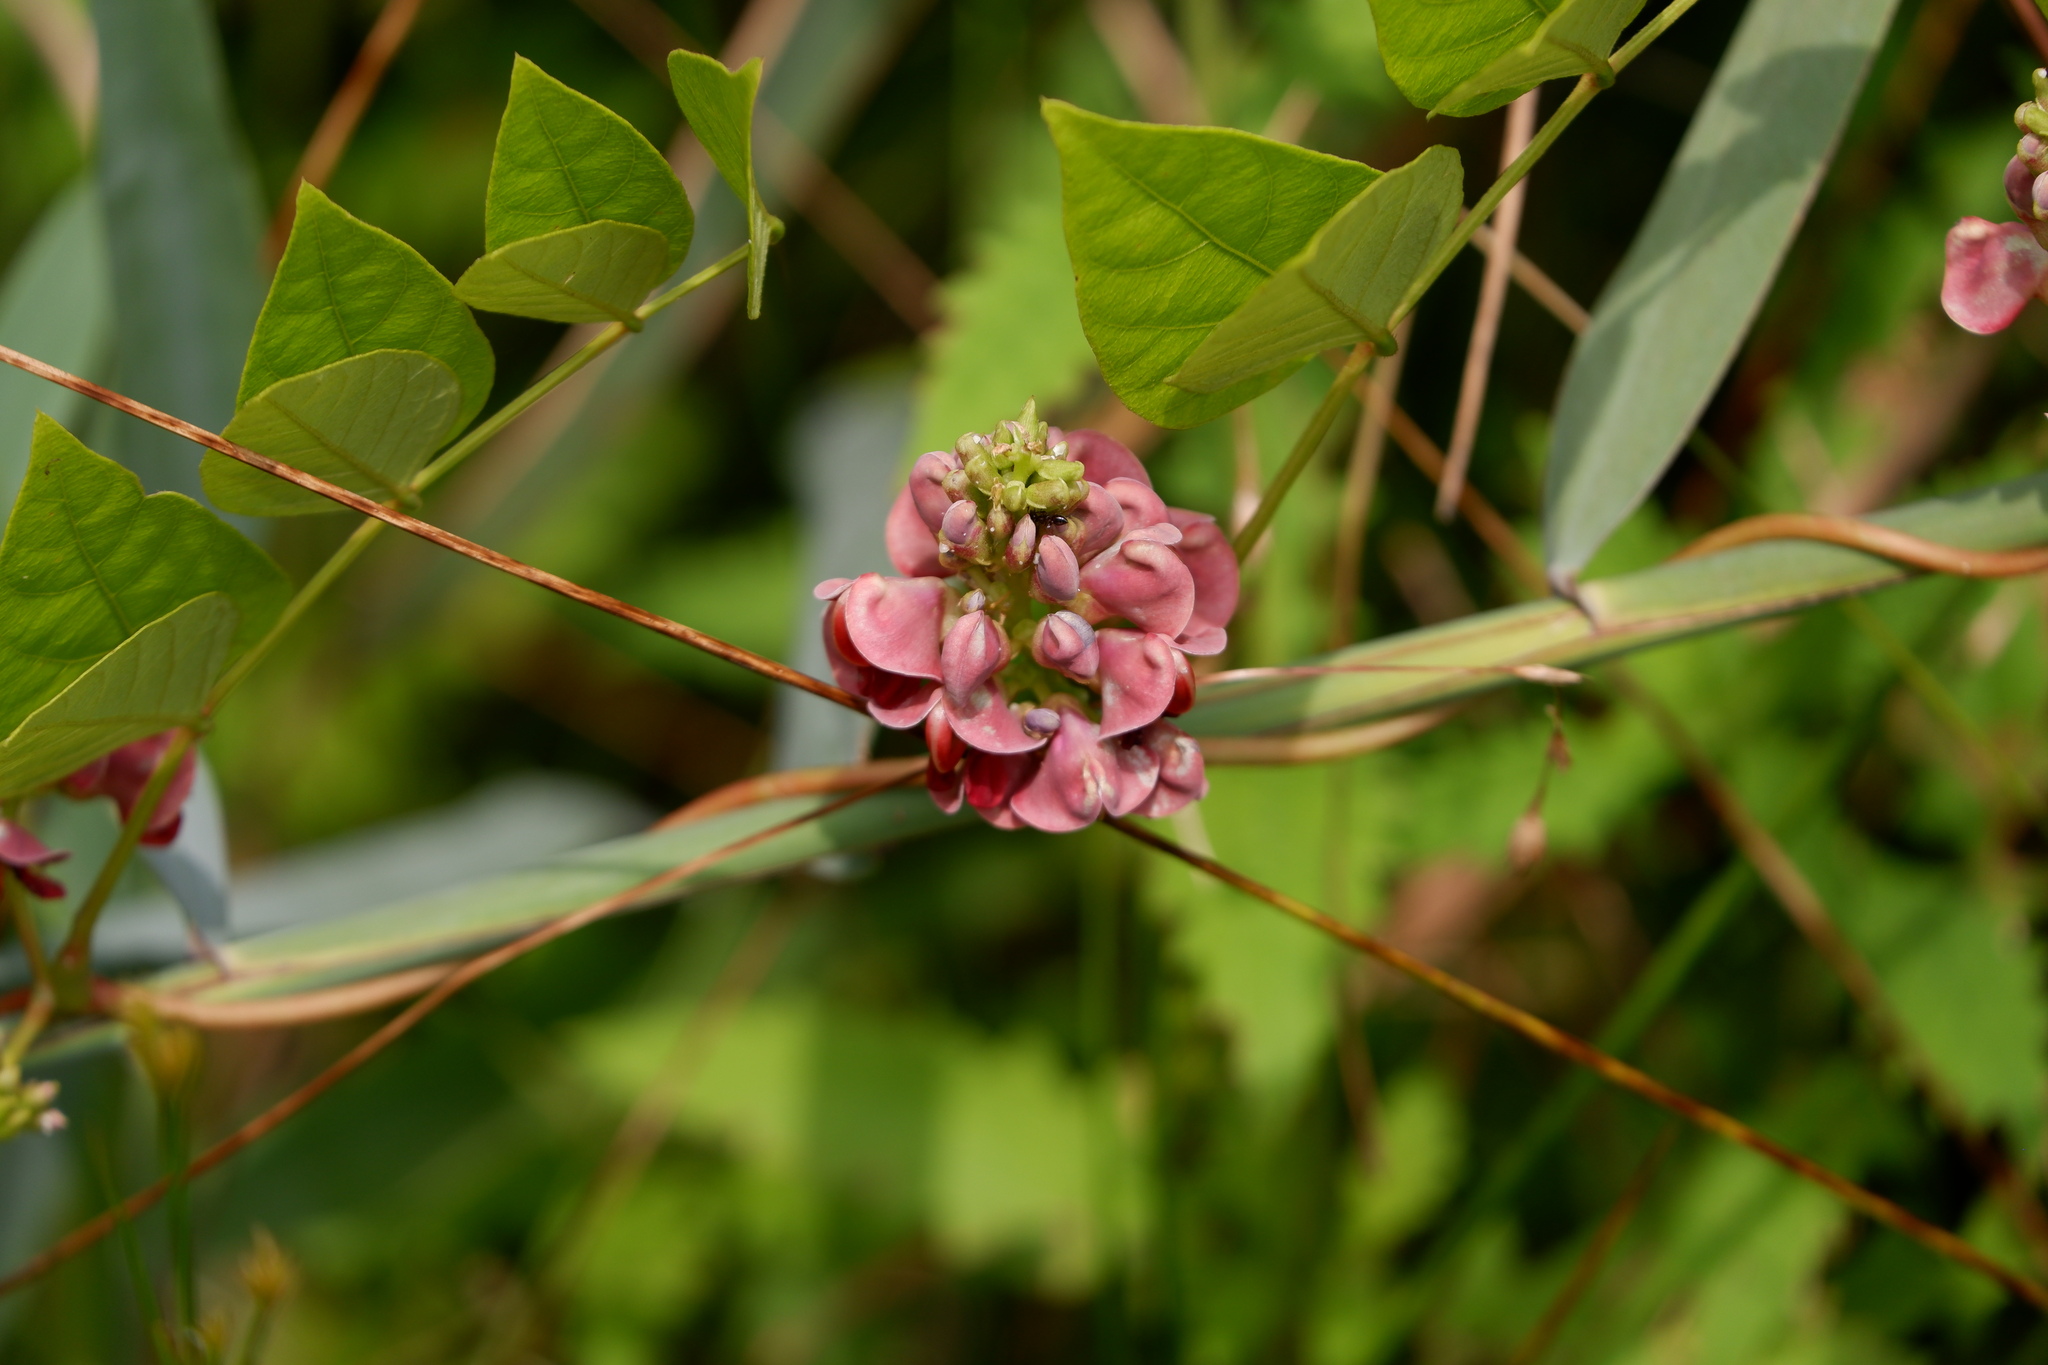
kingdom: Plantae
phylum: Tracheophyta
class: Magnoliopsida
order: Fabales
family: Fabaceae
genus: Apios
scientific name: Apios americana
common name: American potato-bean
